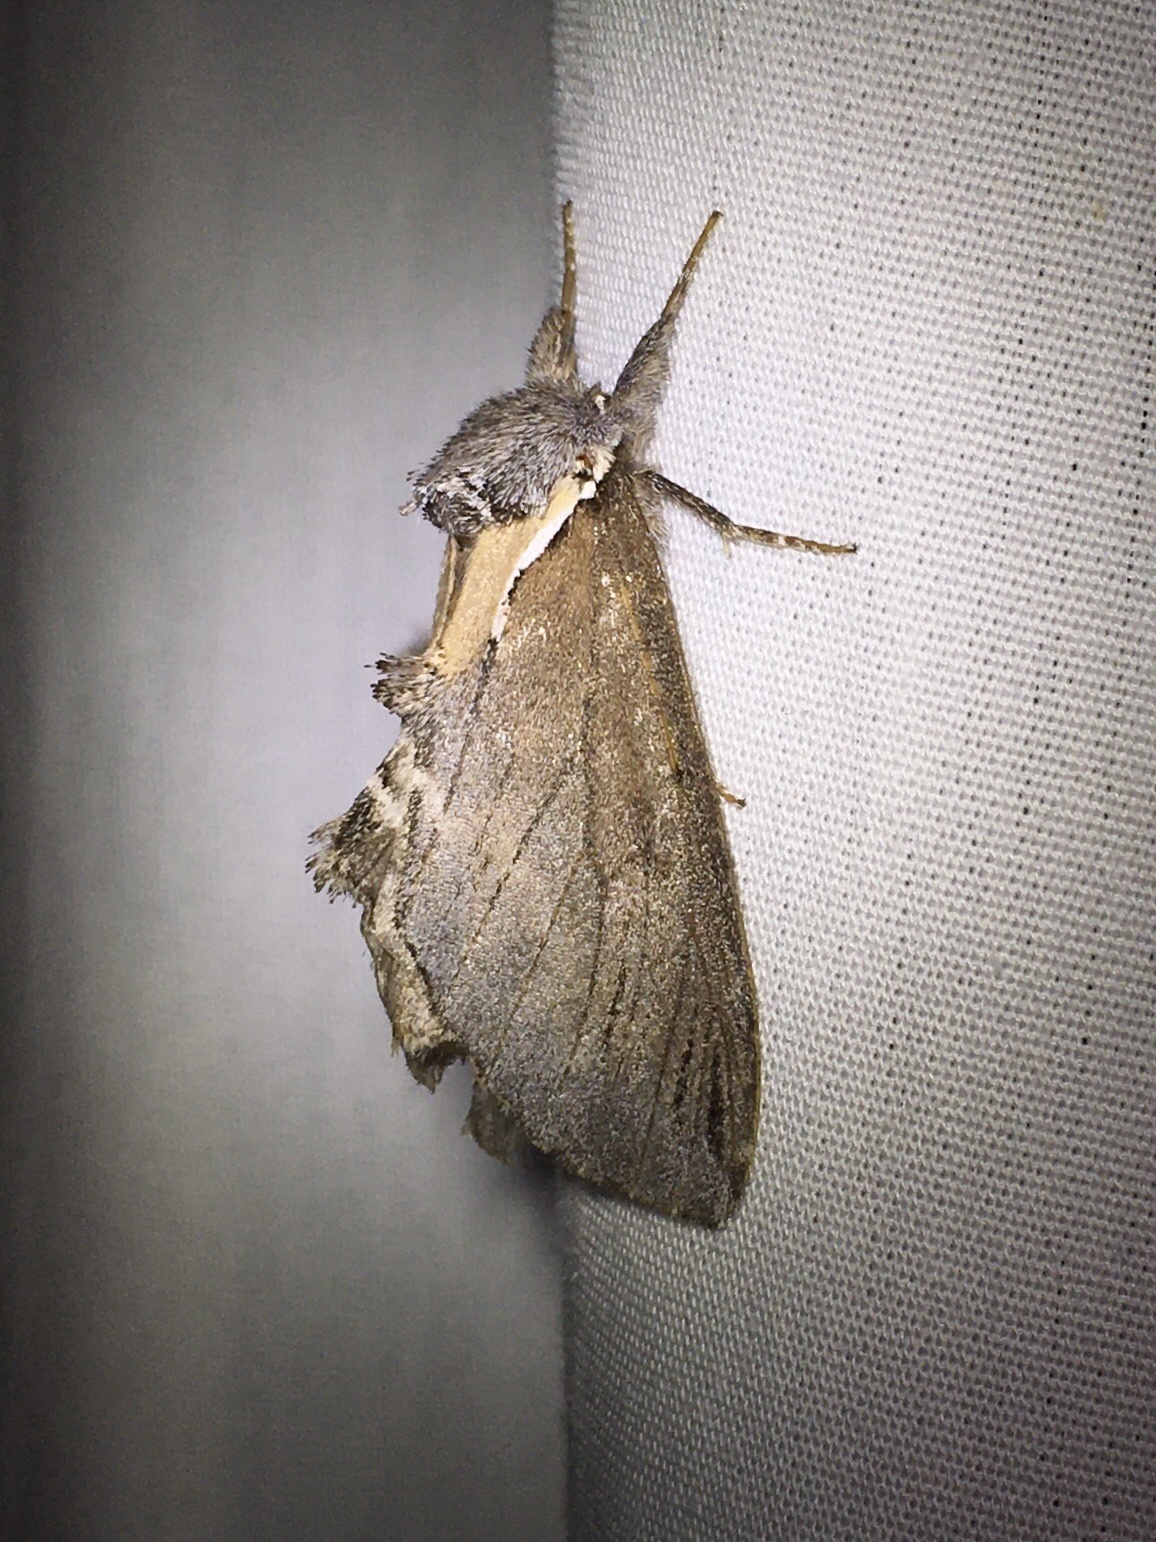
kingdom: Animalia
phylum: Arthropoda
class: Insecta
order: Lepidoptera
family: Notodontidae
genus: Pheosidea
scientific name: Pheosidea elegans
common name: Elegant prominent
